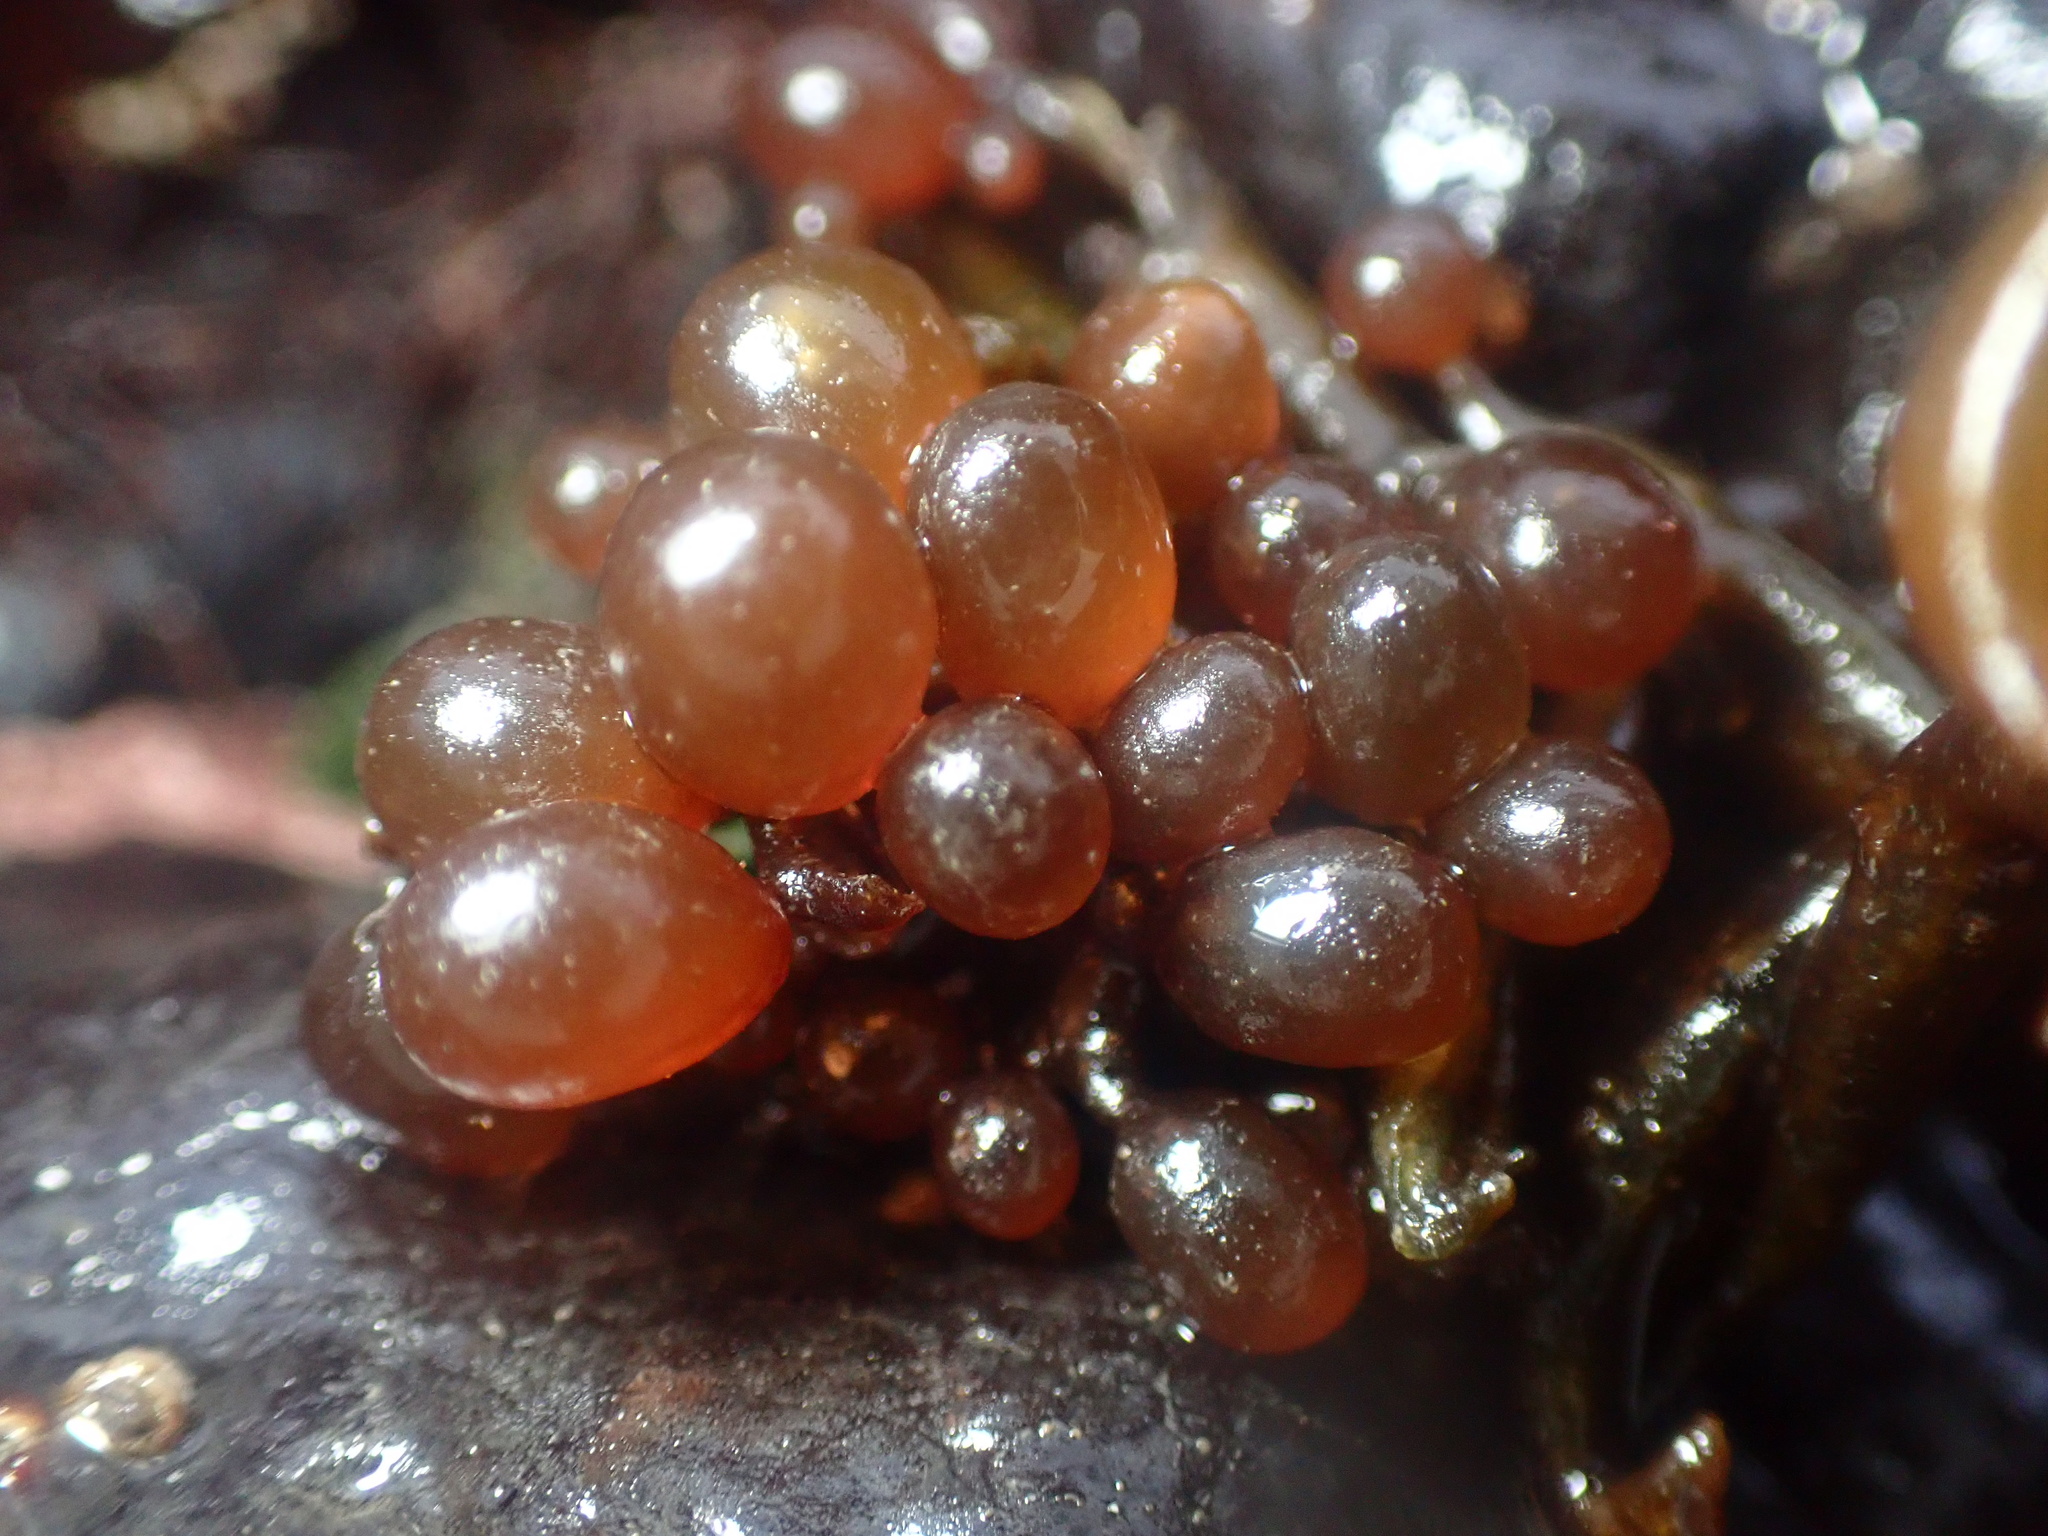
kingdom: Plantae
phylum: Rhodophyta
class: Florideophyceae
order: Rhodymeniales
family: Rhodymeniaceae
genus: Botryocladia
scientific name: Botryocladia pseudodichotoma
